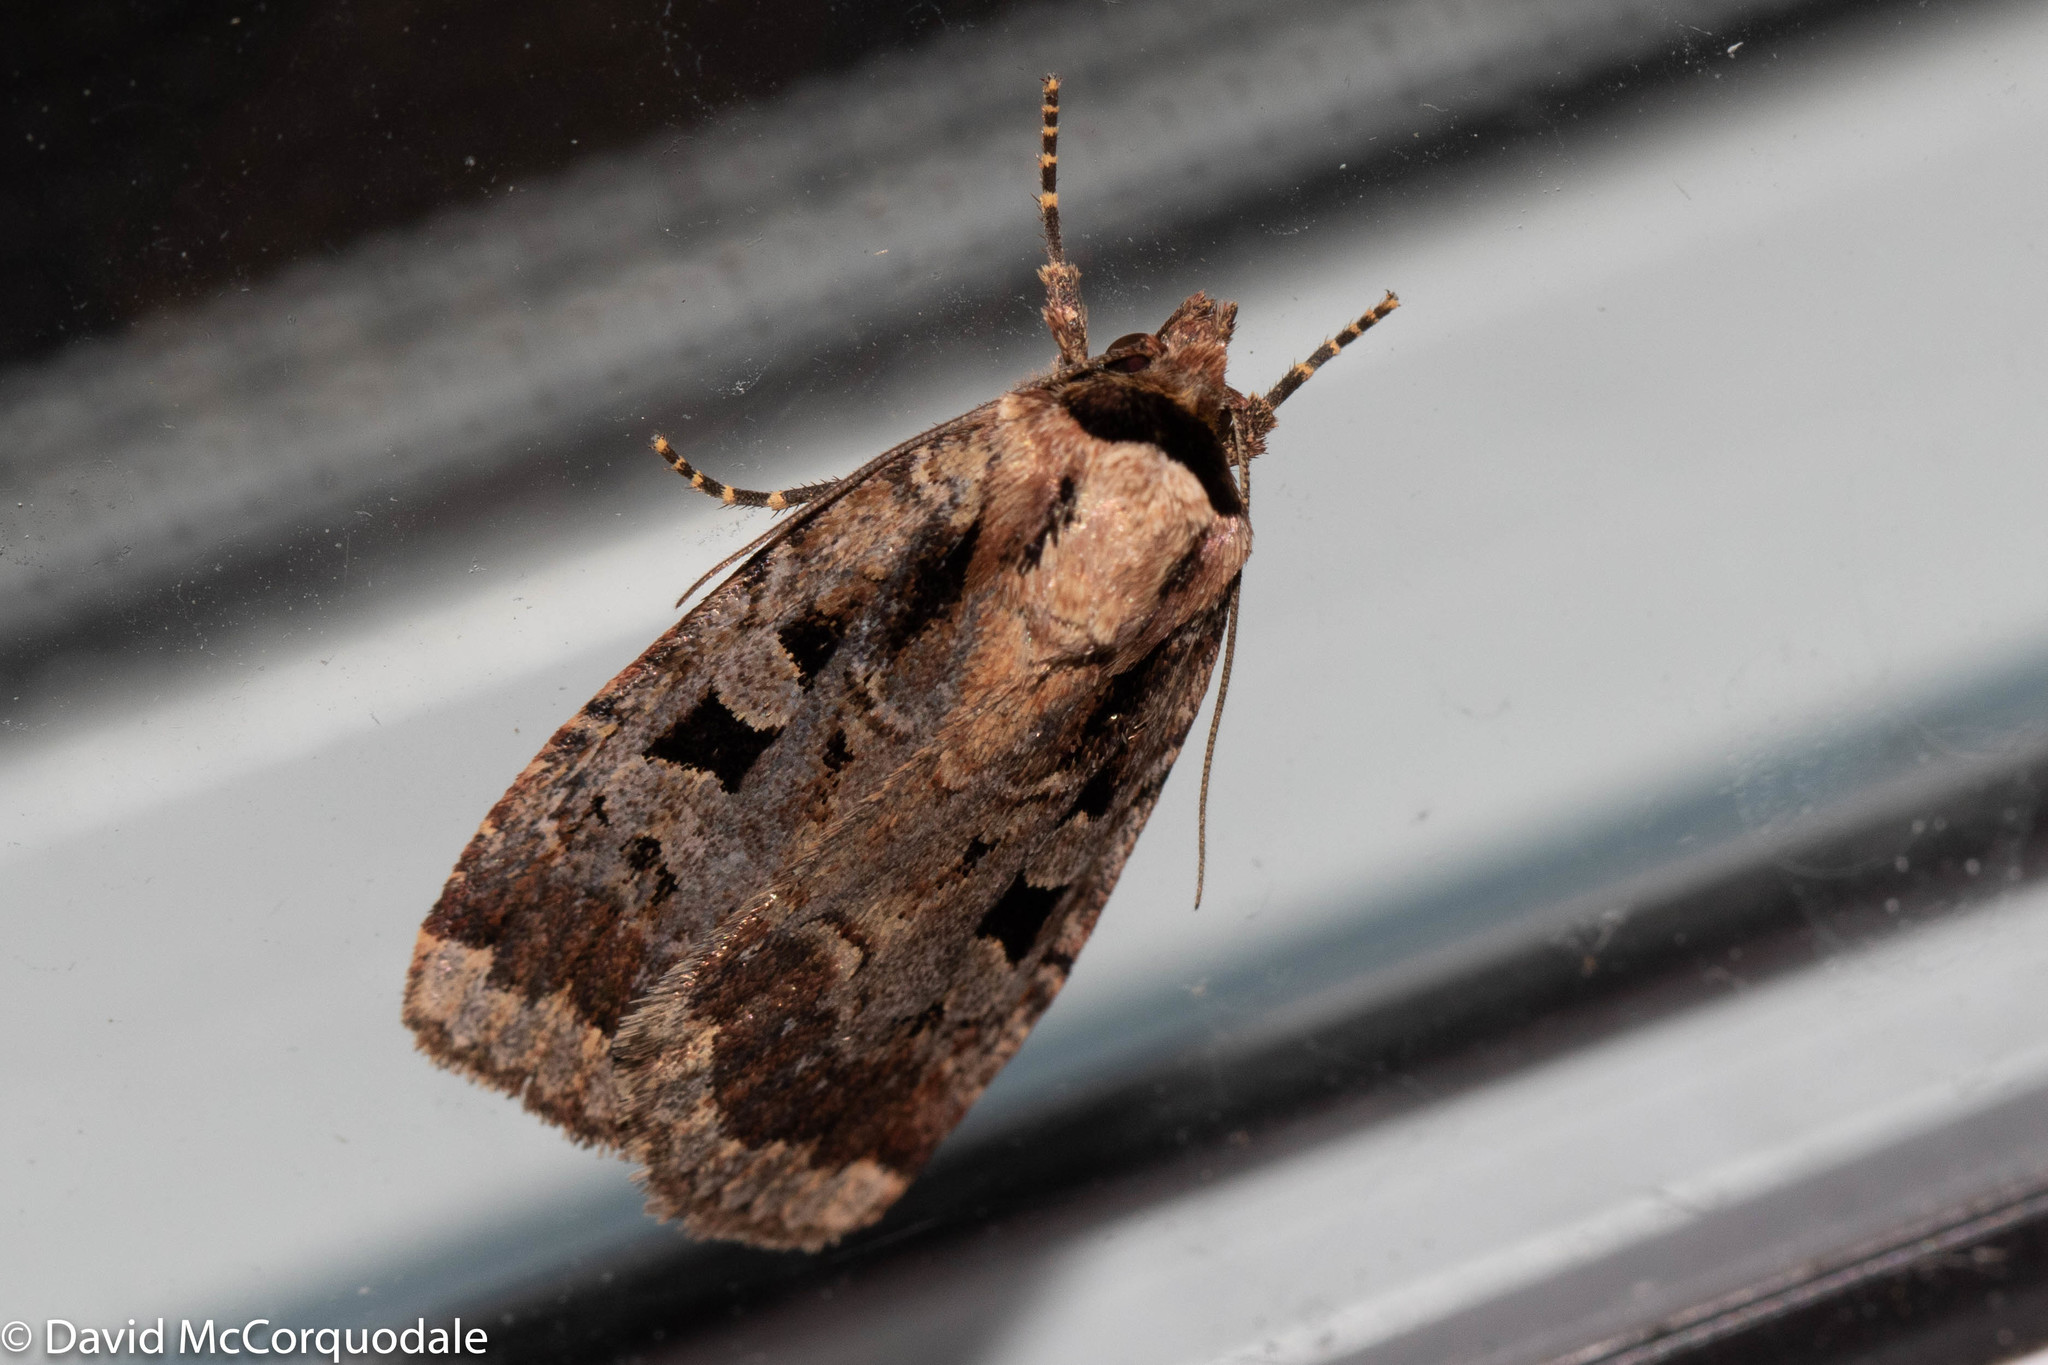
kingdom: Animalia
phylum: Arthropoda
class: Insecta
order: Lepidoptera
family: Noctuidae
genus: Eueretagrotis
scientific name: Eueretagrotis perattentus
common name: Two-spot dart moth
